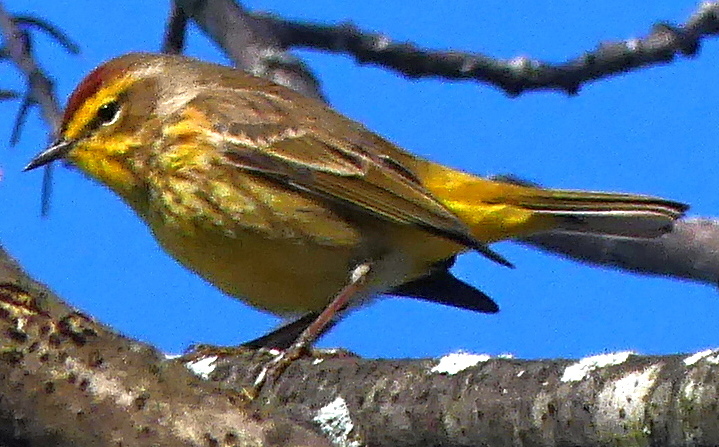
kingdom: Animalia
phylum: Chordata
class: Aves
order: Passeriformes
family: Parulidae
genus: Setophaga
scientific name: Setophaga palmarum
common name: Palm warbler
